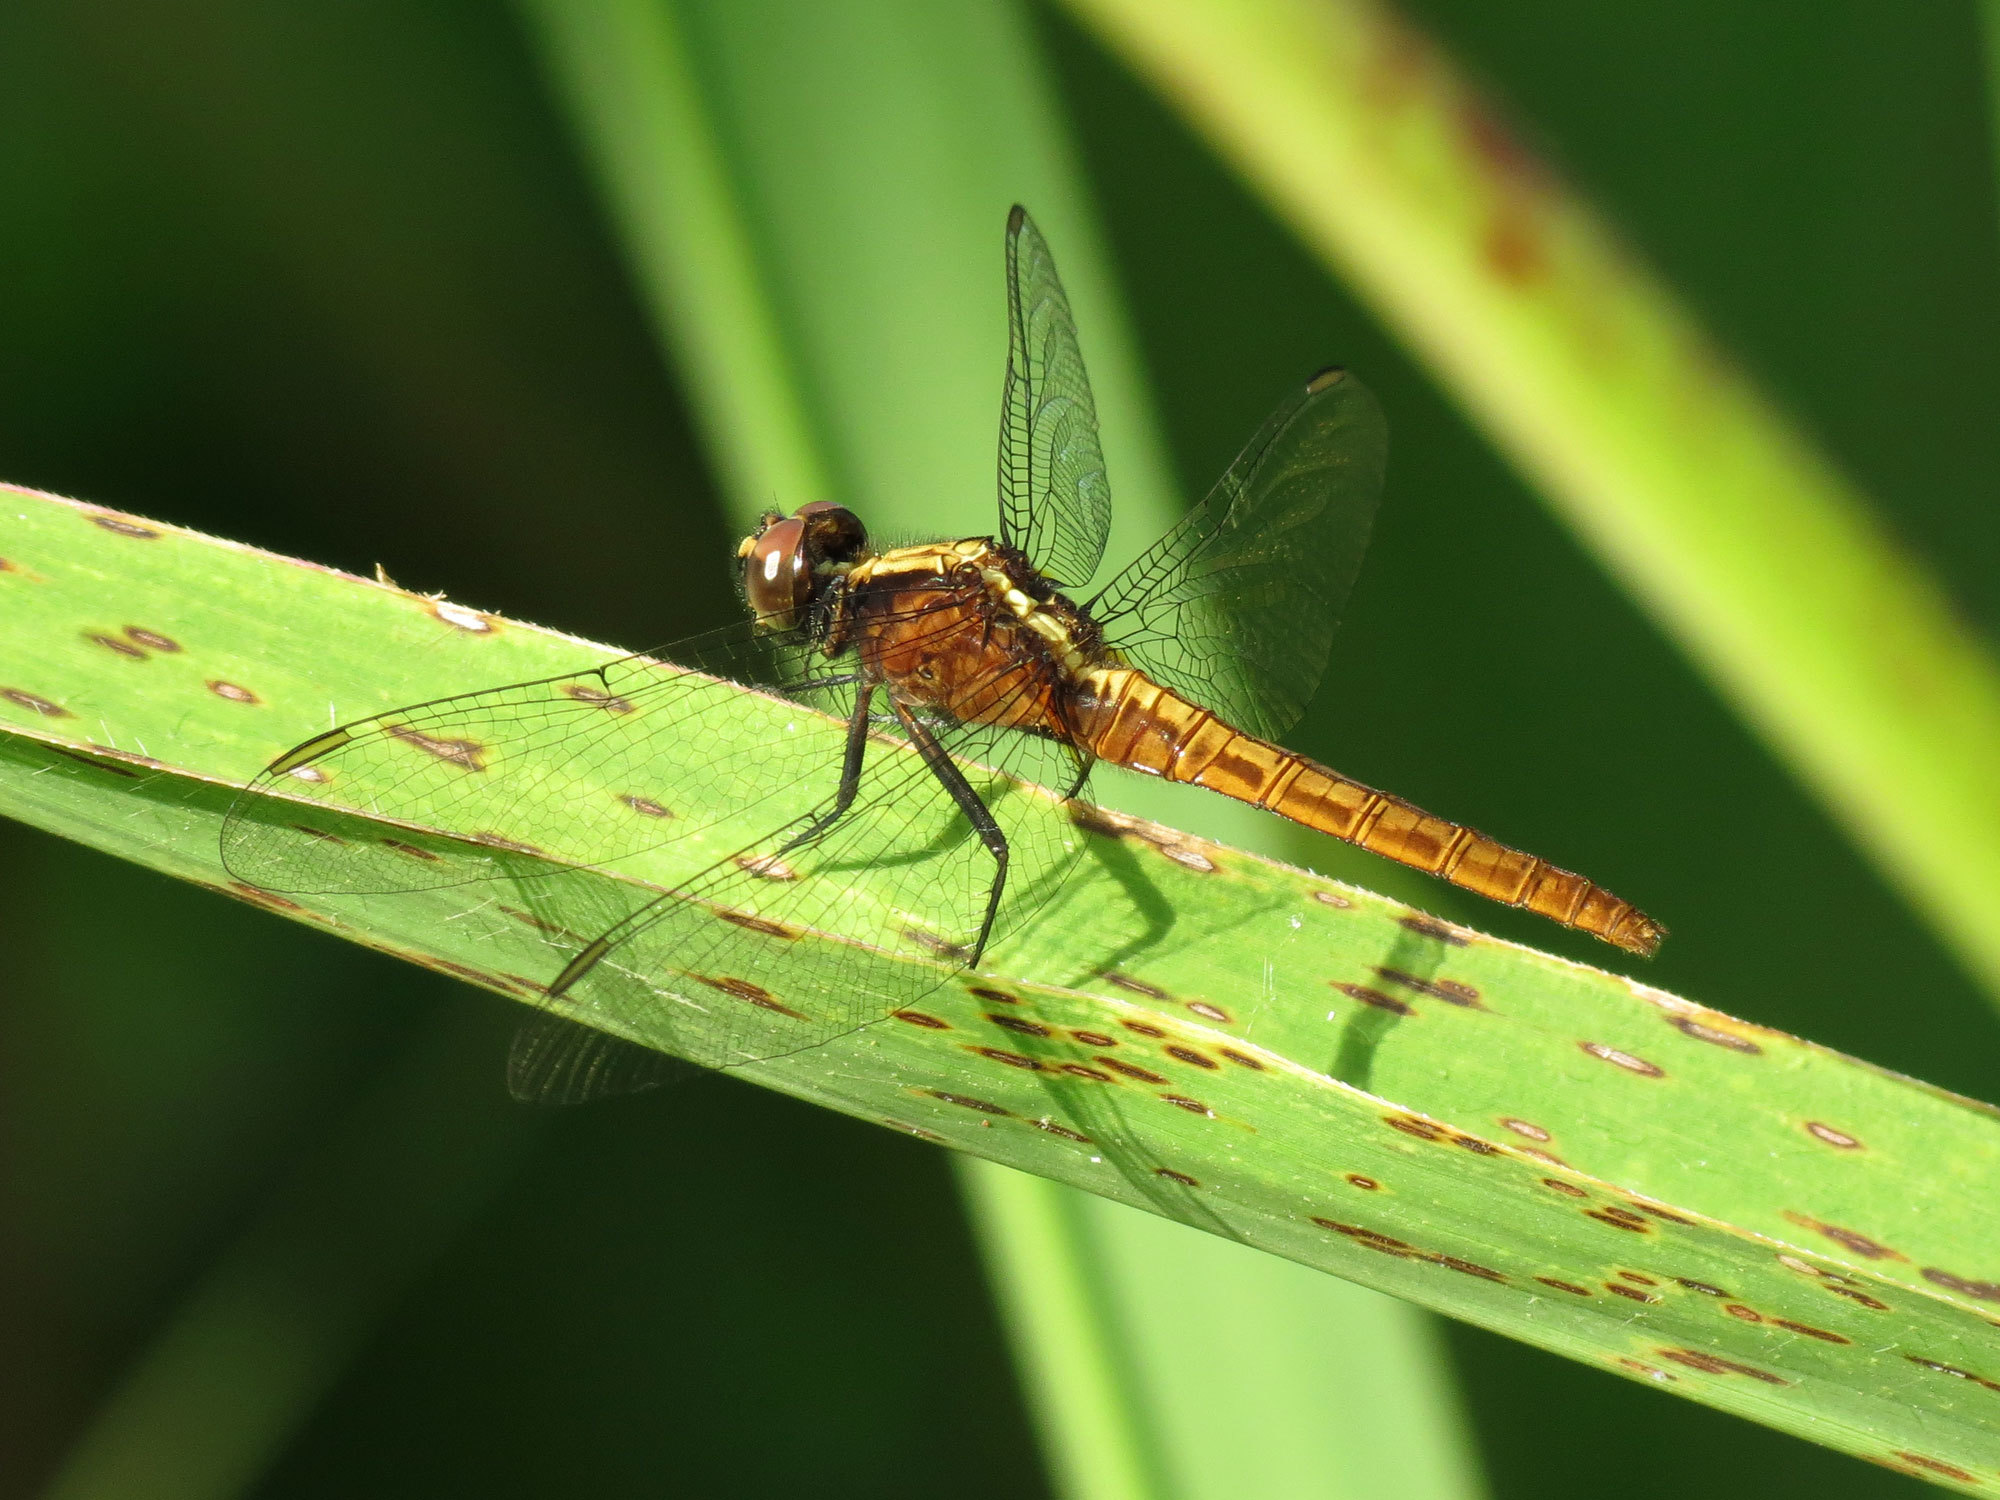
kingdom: Animalia
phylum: Arthropoda
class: Insecta
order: Odonata
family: Libellulidae
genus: Erythemis
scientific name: Erythemis peruviana
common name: Flame-tailed pondhawk
